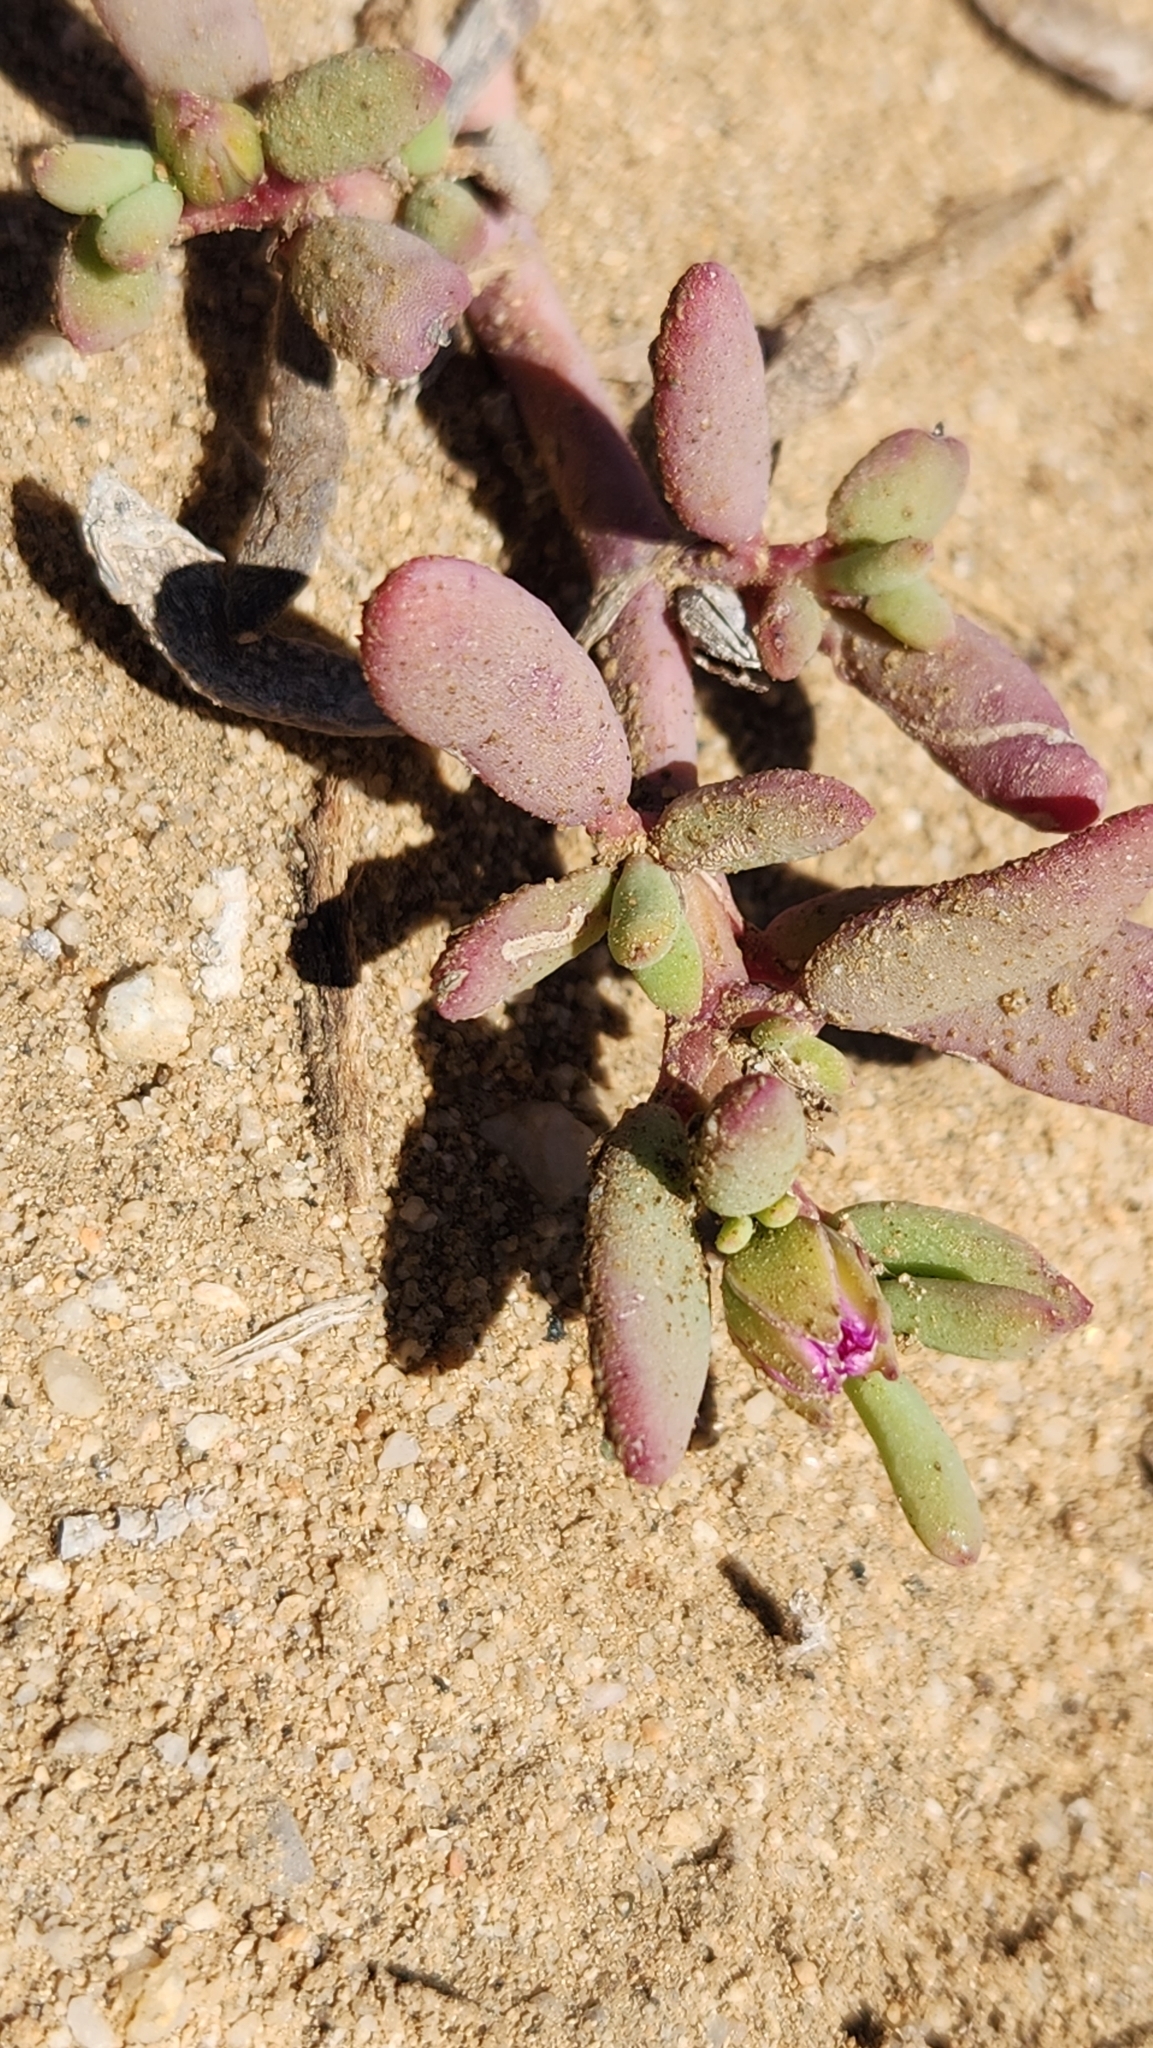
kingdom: Plantae
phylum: Tracheophyta
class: Magnoliopsida
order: Caryophyllales
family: Aizoaceae
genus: Sesuvium
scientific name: Sesuvium portulacastrum
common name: Sea-purslane
